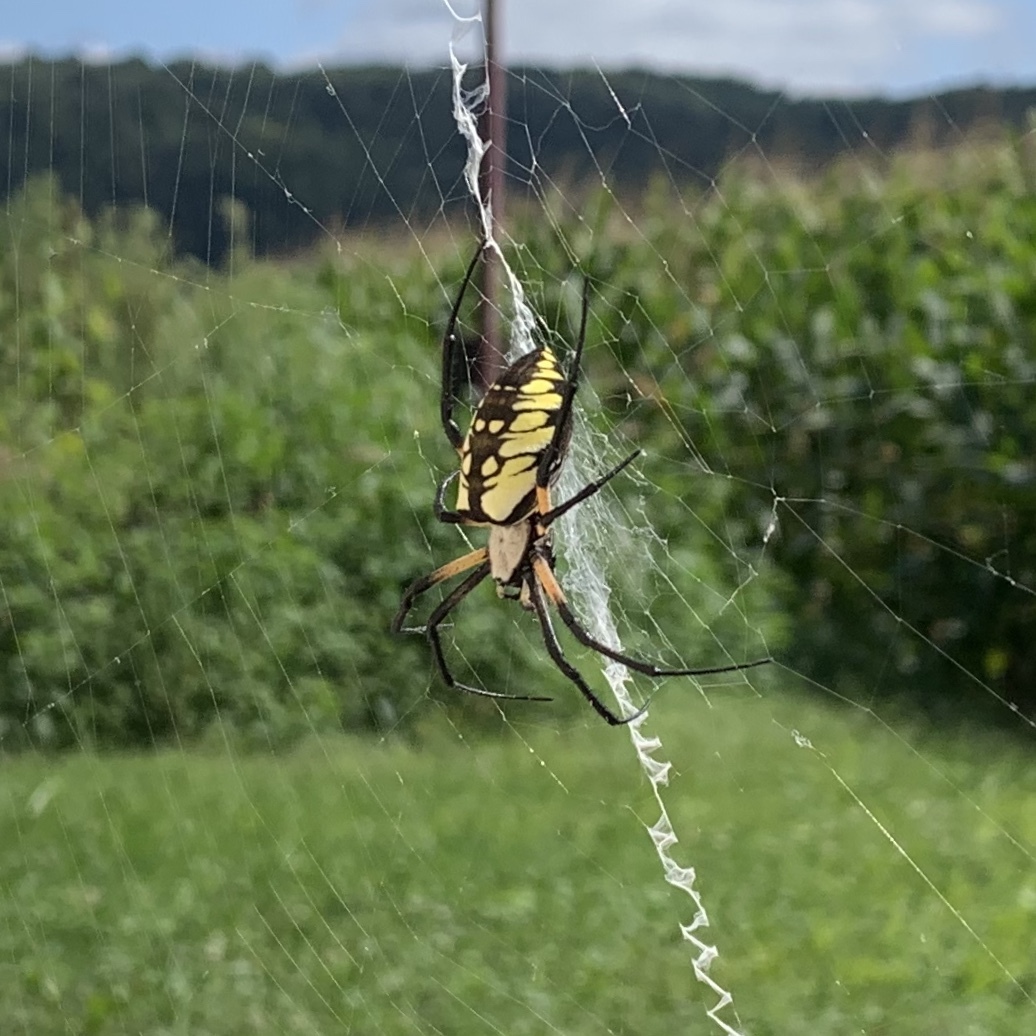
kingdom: Animalia
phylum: Arthropoda
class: Arachnida
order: Araneae
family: Araneidae
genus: Argiope
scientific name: Argiope aurantia
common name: Orb weavers
